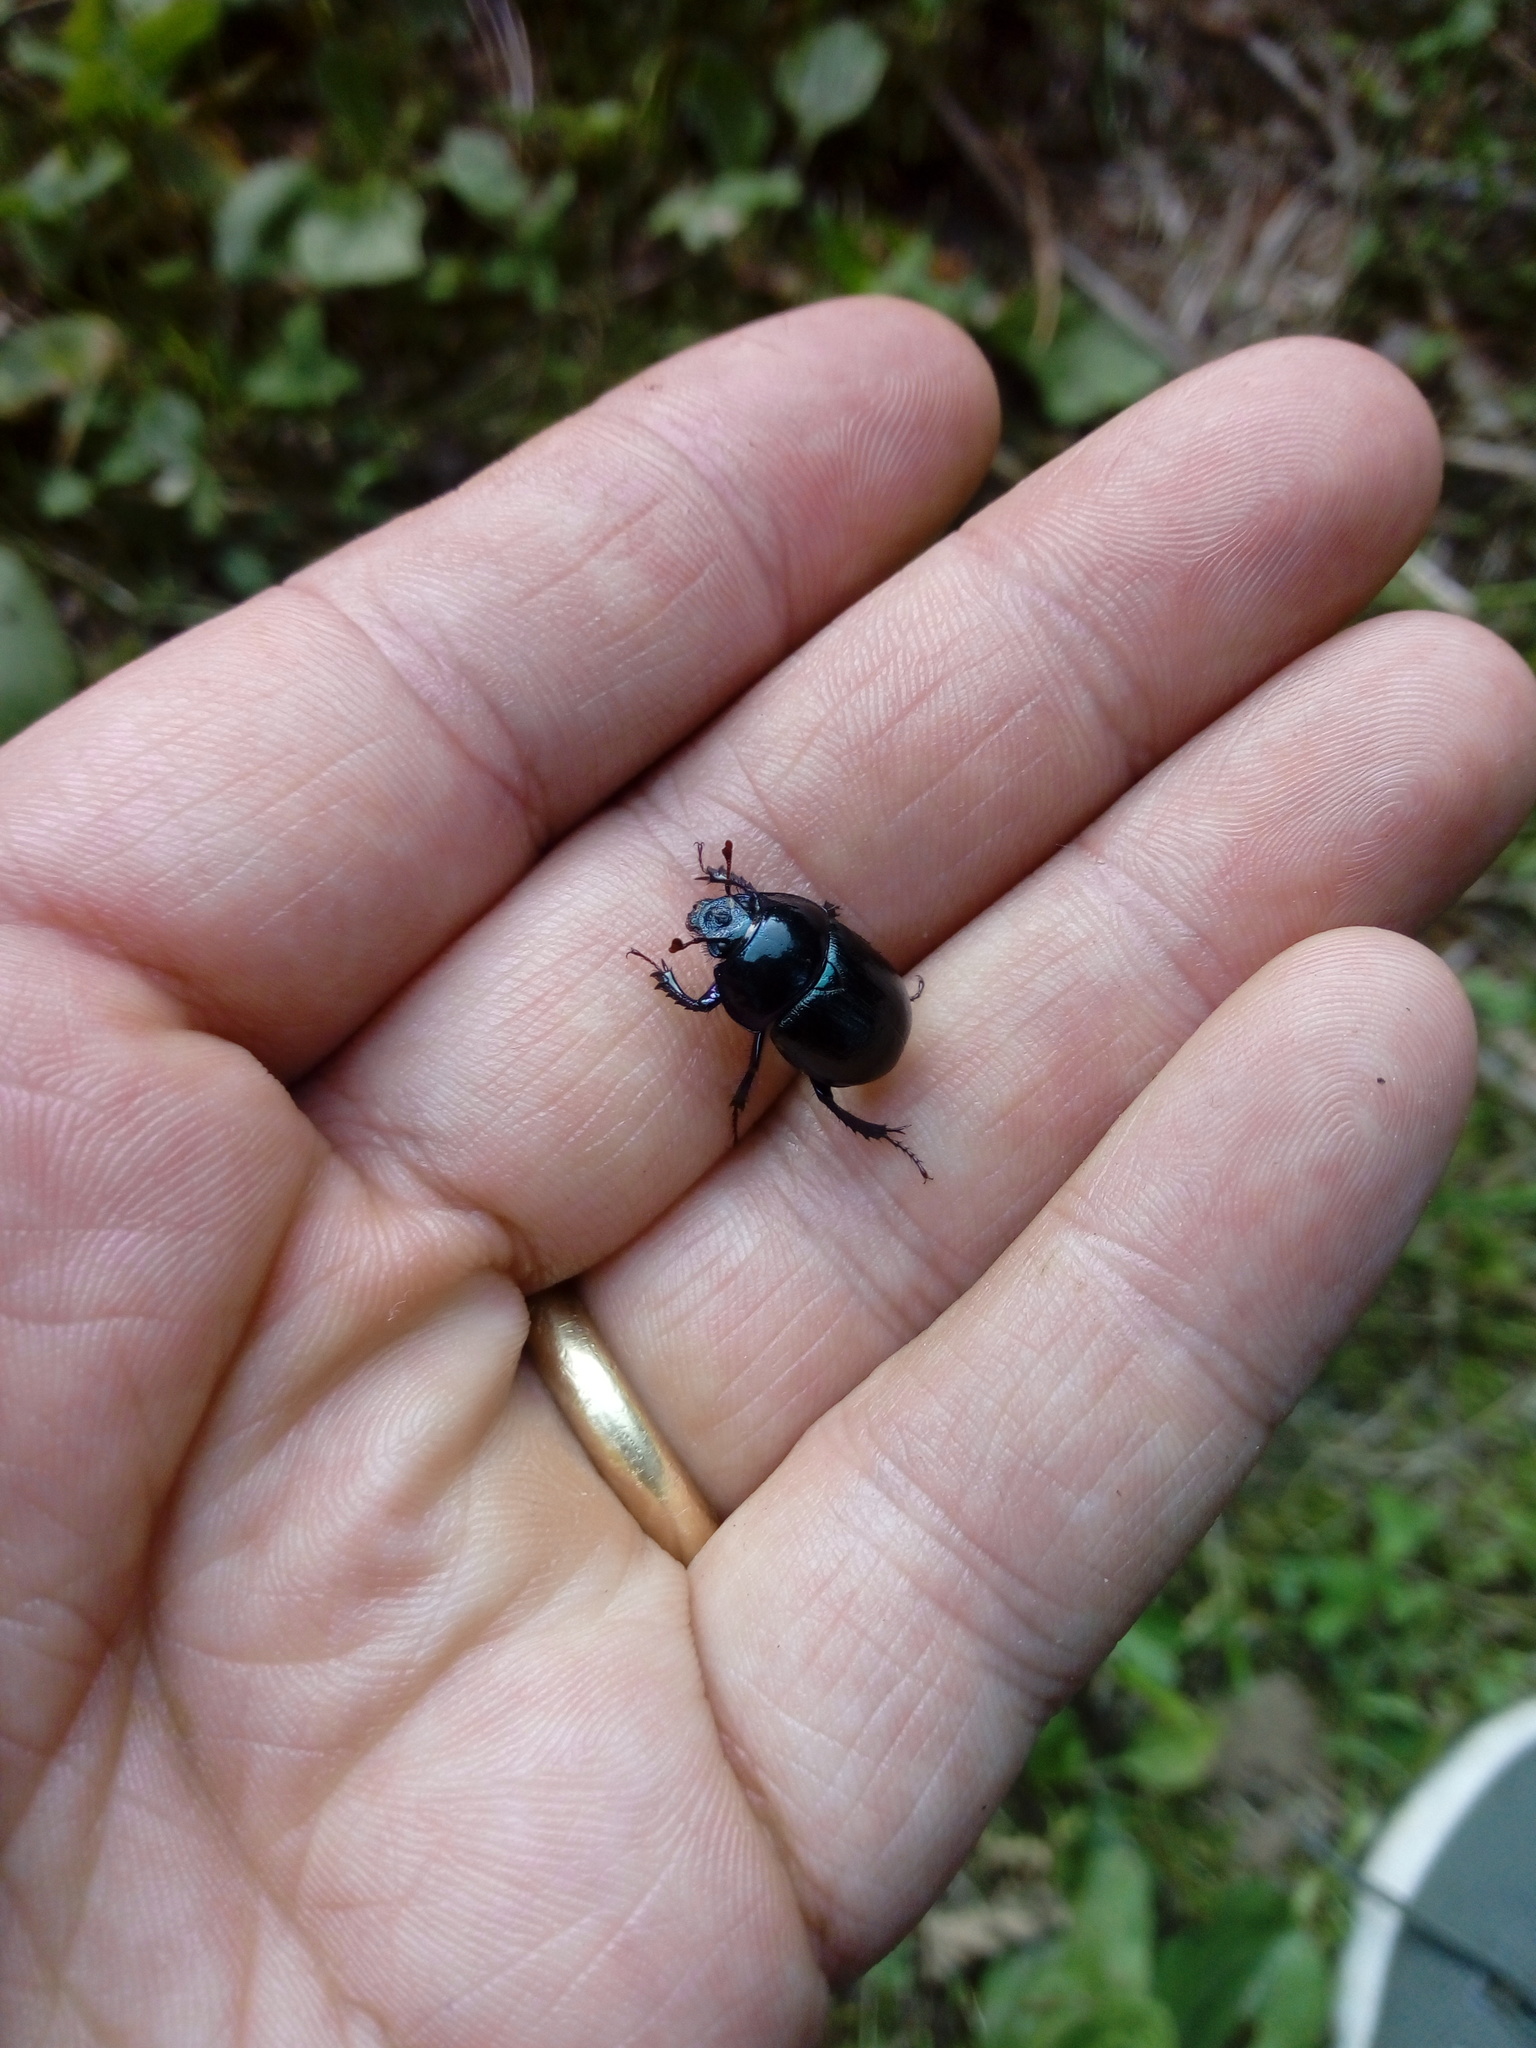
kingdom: Animalia
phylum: Arthropoda
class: Insecta
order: Coleoptera
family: Geotrupidae
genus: Anoplotrupes
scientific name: Anoplotrupes stercorosus
